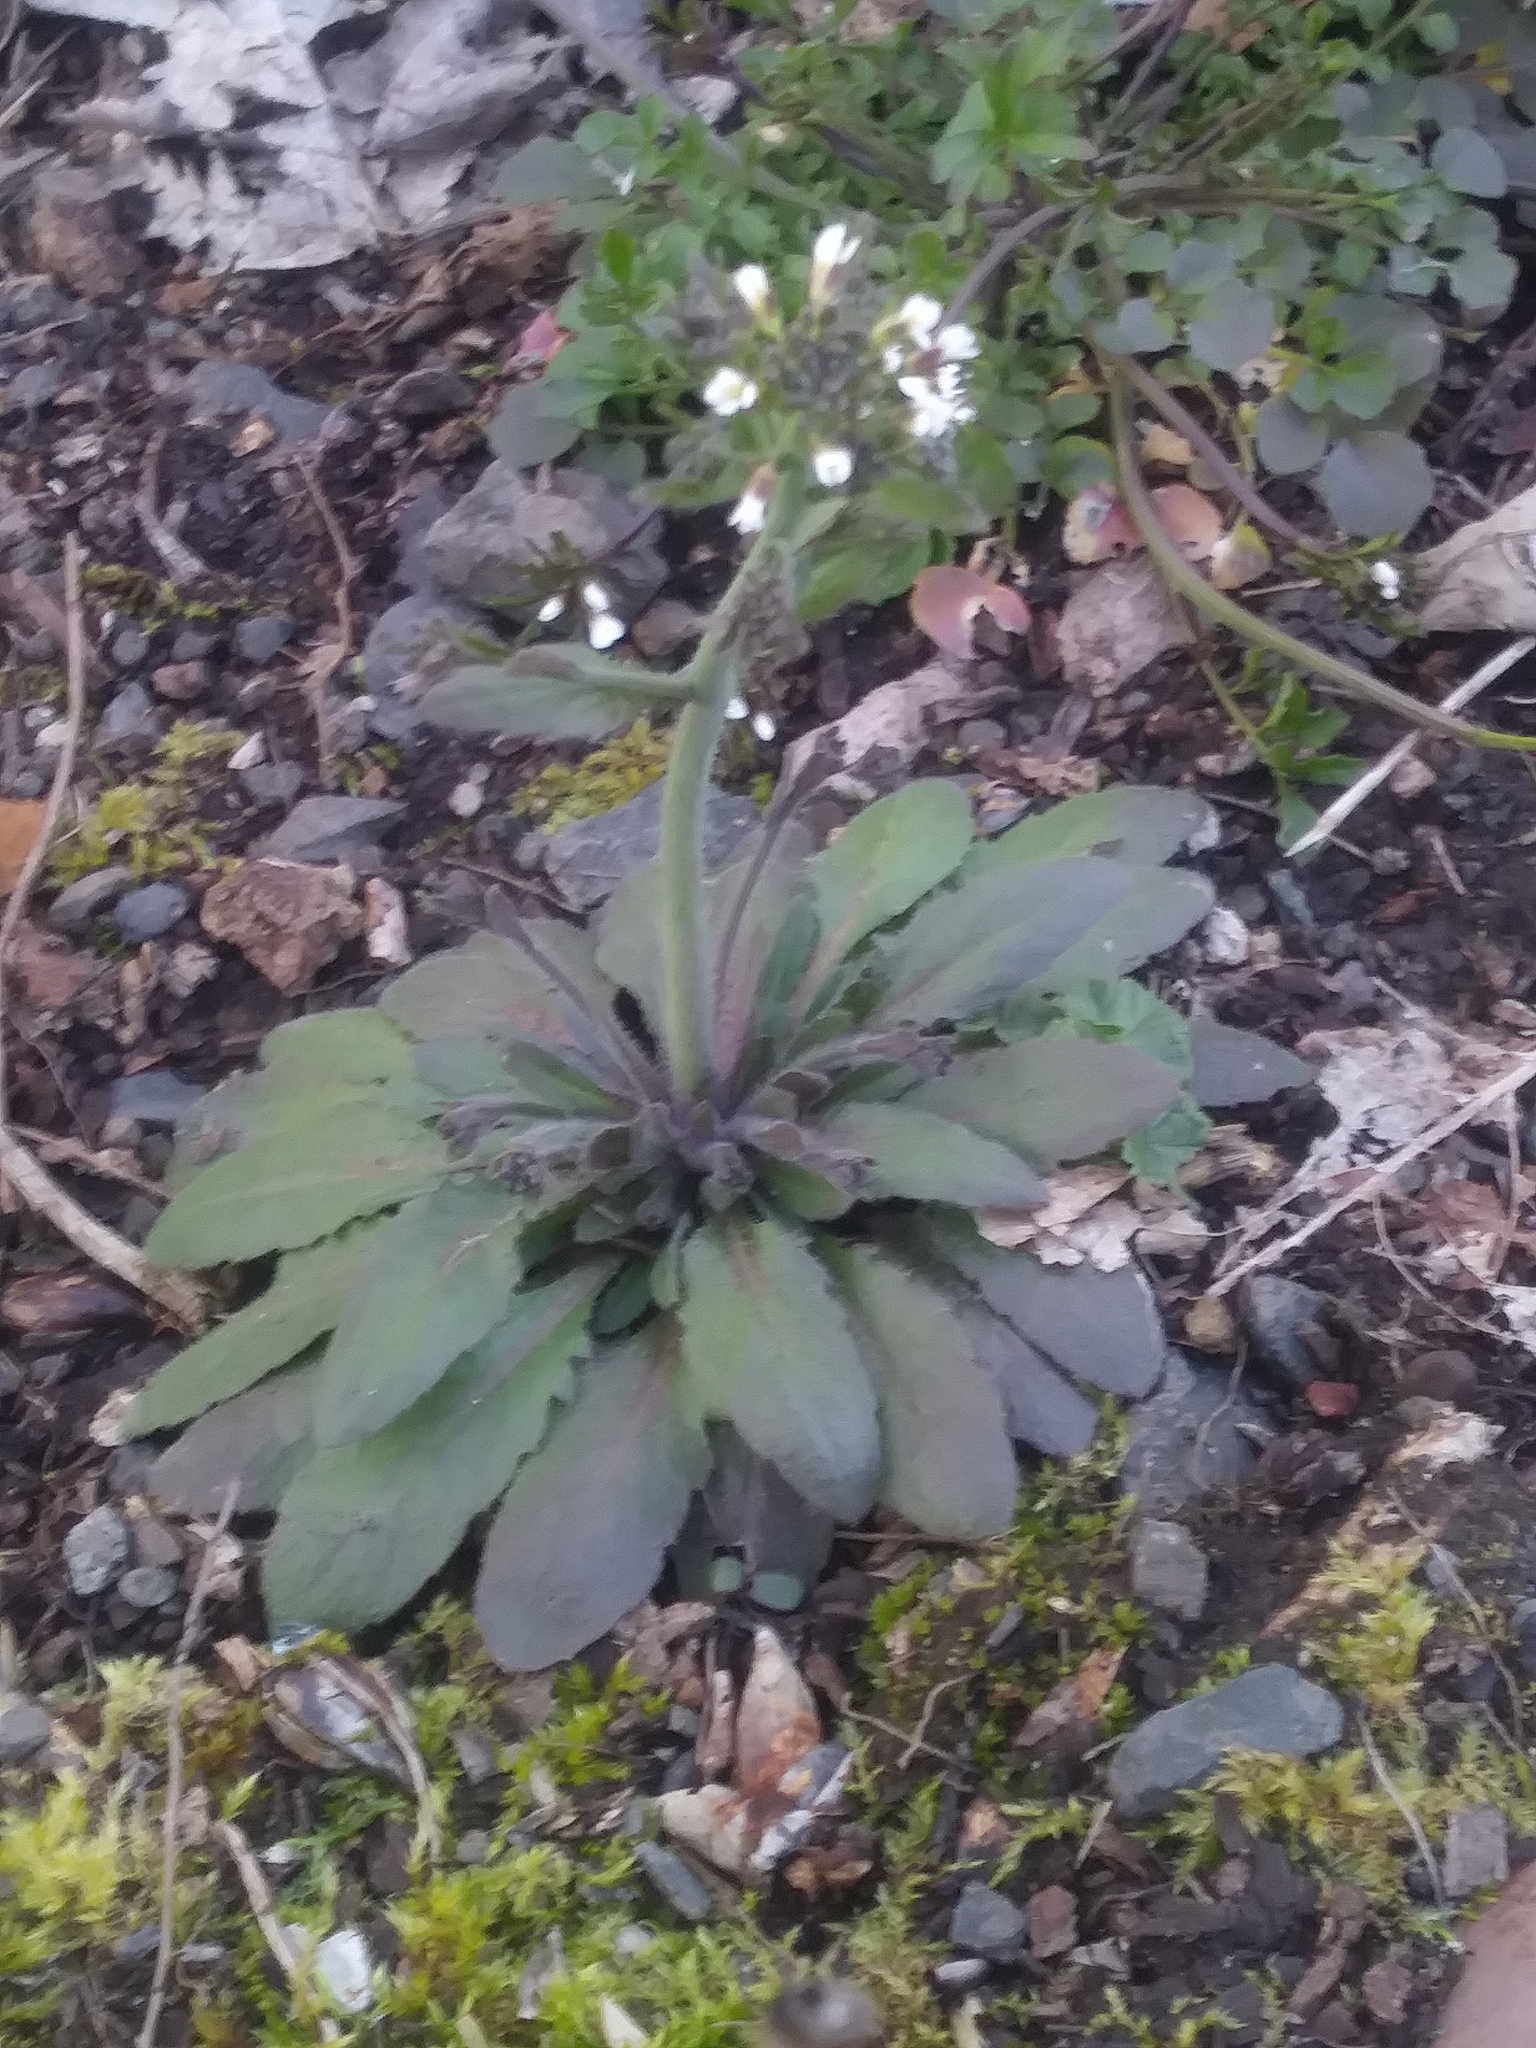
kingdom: Plantae
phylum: Tracheophyta
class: Magnoliopsida
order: Brassicales
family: Brassicaceae
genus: Arabidopsis
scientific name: Arabidopsis thaliana
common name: Thale cress
